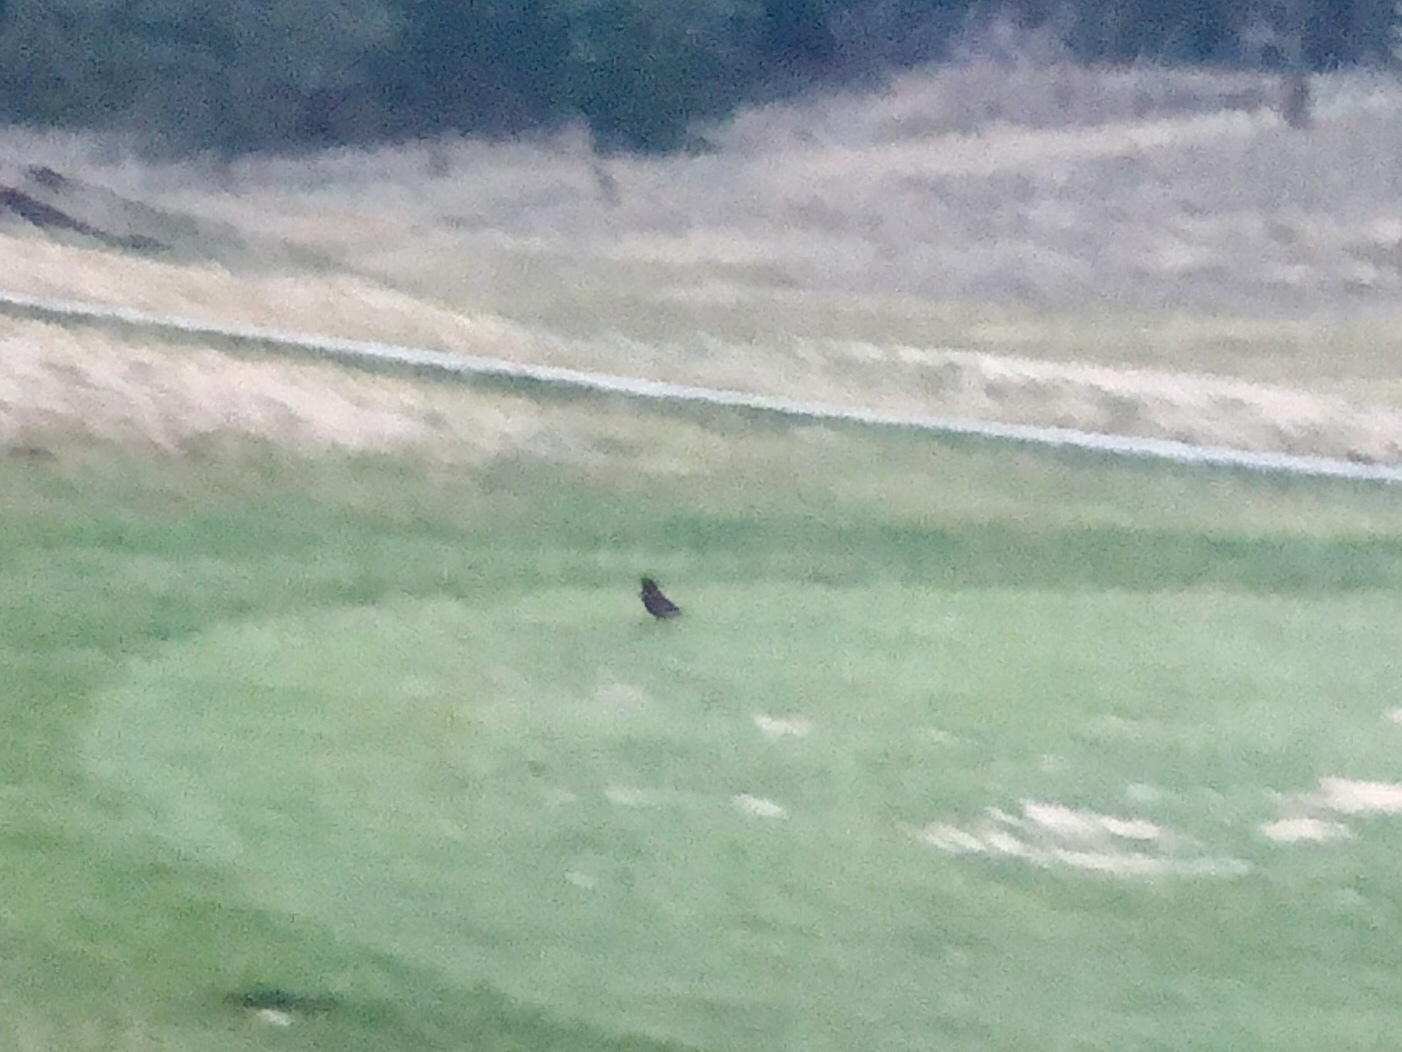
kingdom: Animalia
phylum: Chordata
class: Aves
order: Passeriformes
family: Turdidae
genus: Turdus
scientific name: Turdus migratorius
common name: American robin
